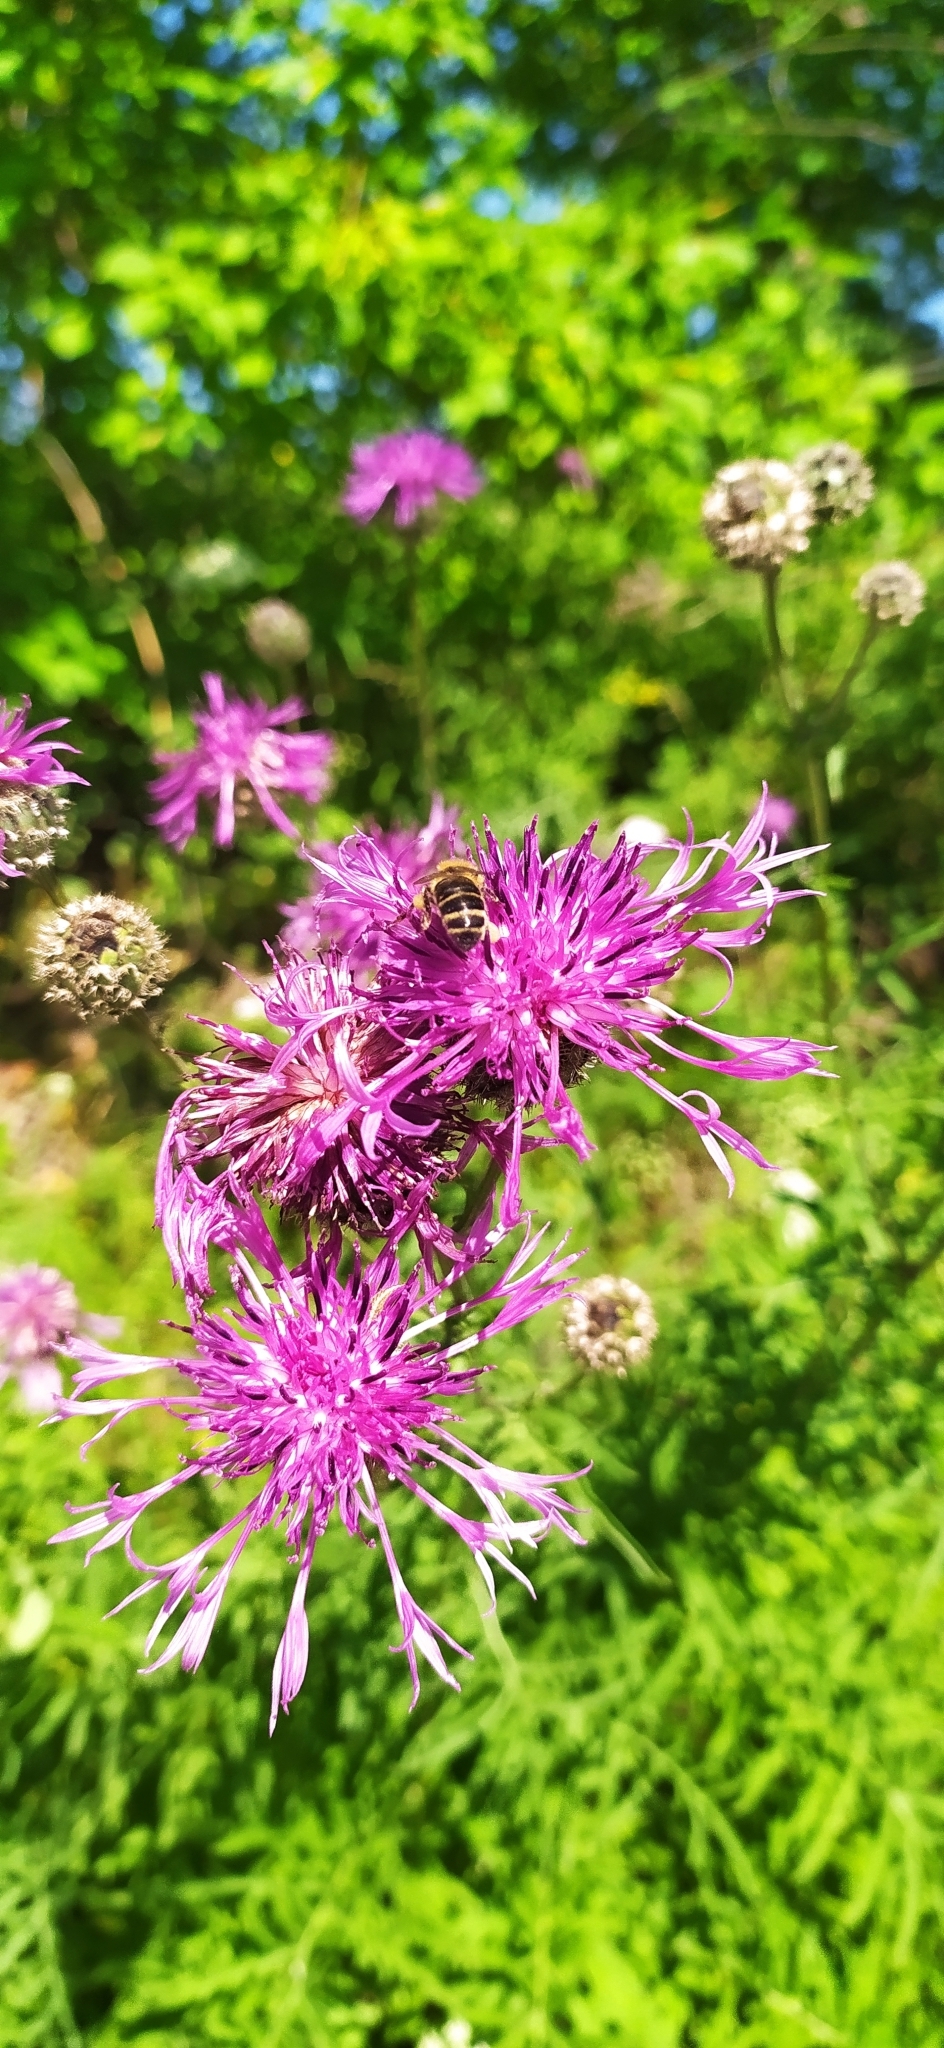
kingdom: Plantae
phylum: Tracheophyta
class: Magnoliopsida
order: Asterales
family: Asteraceae
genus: Centaurea
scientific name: Centaurea scabiosa
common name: Greater knapweed
